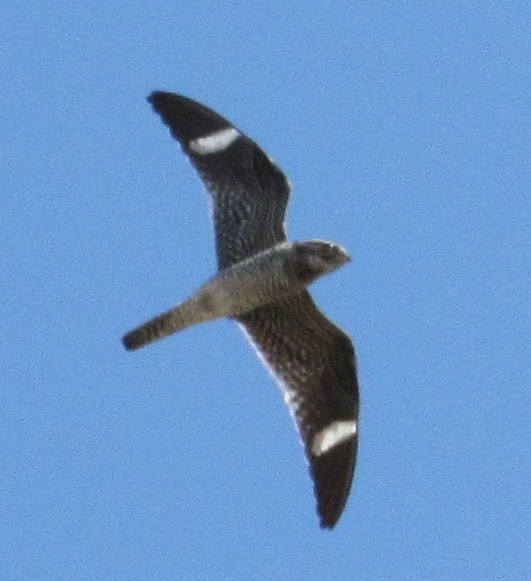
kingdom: Animalia
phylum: Chordata
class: Aves
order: Caprimulgiformes
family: Caprimulgidae
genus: Chordeiles
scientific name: Chordeiles minor
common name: Common nighthawk
